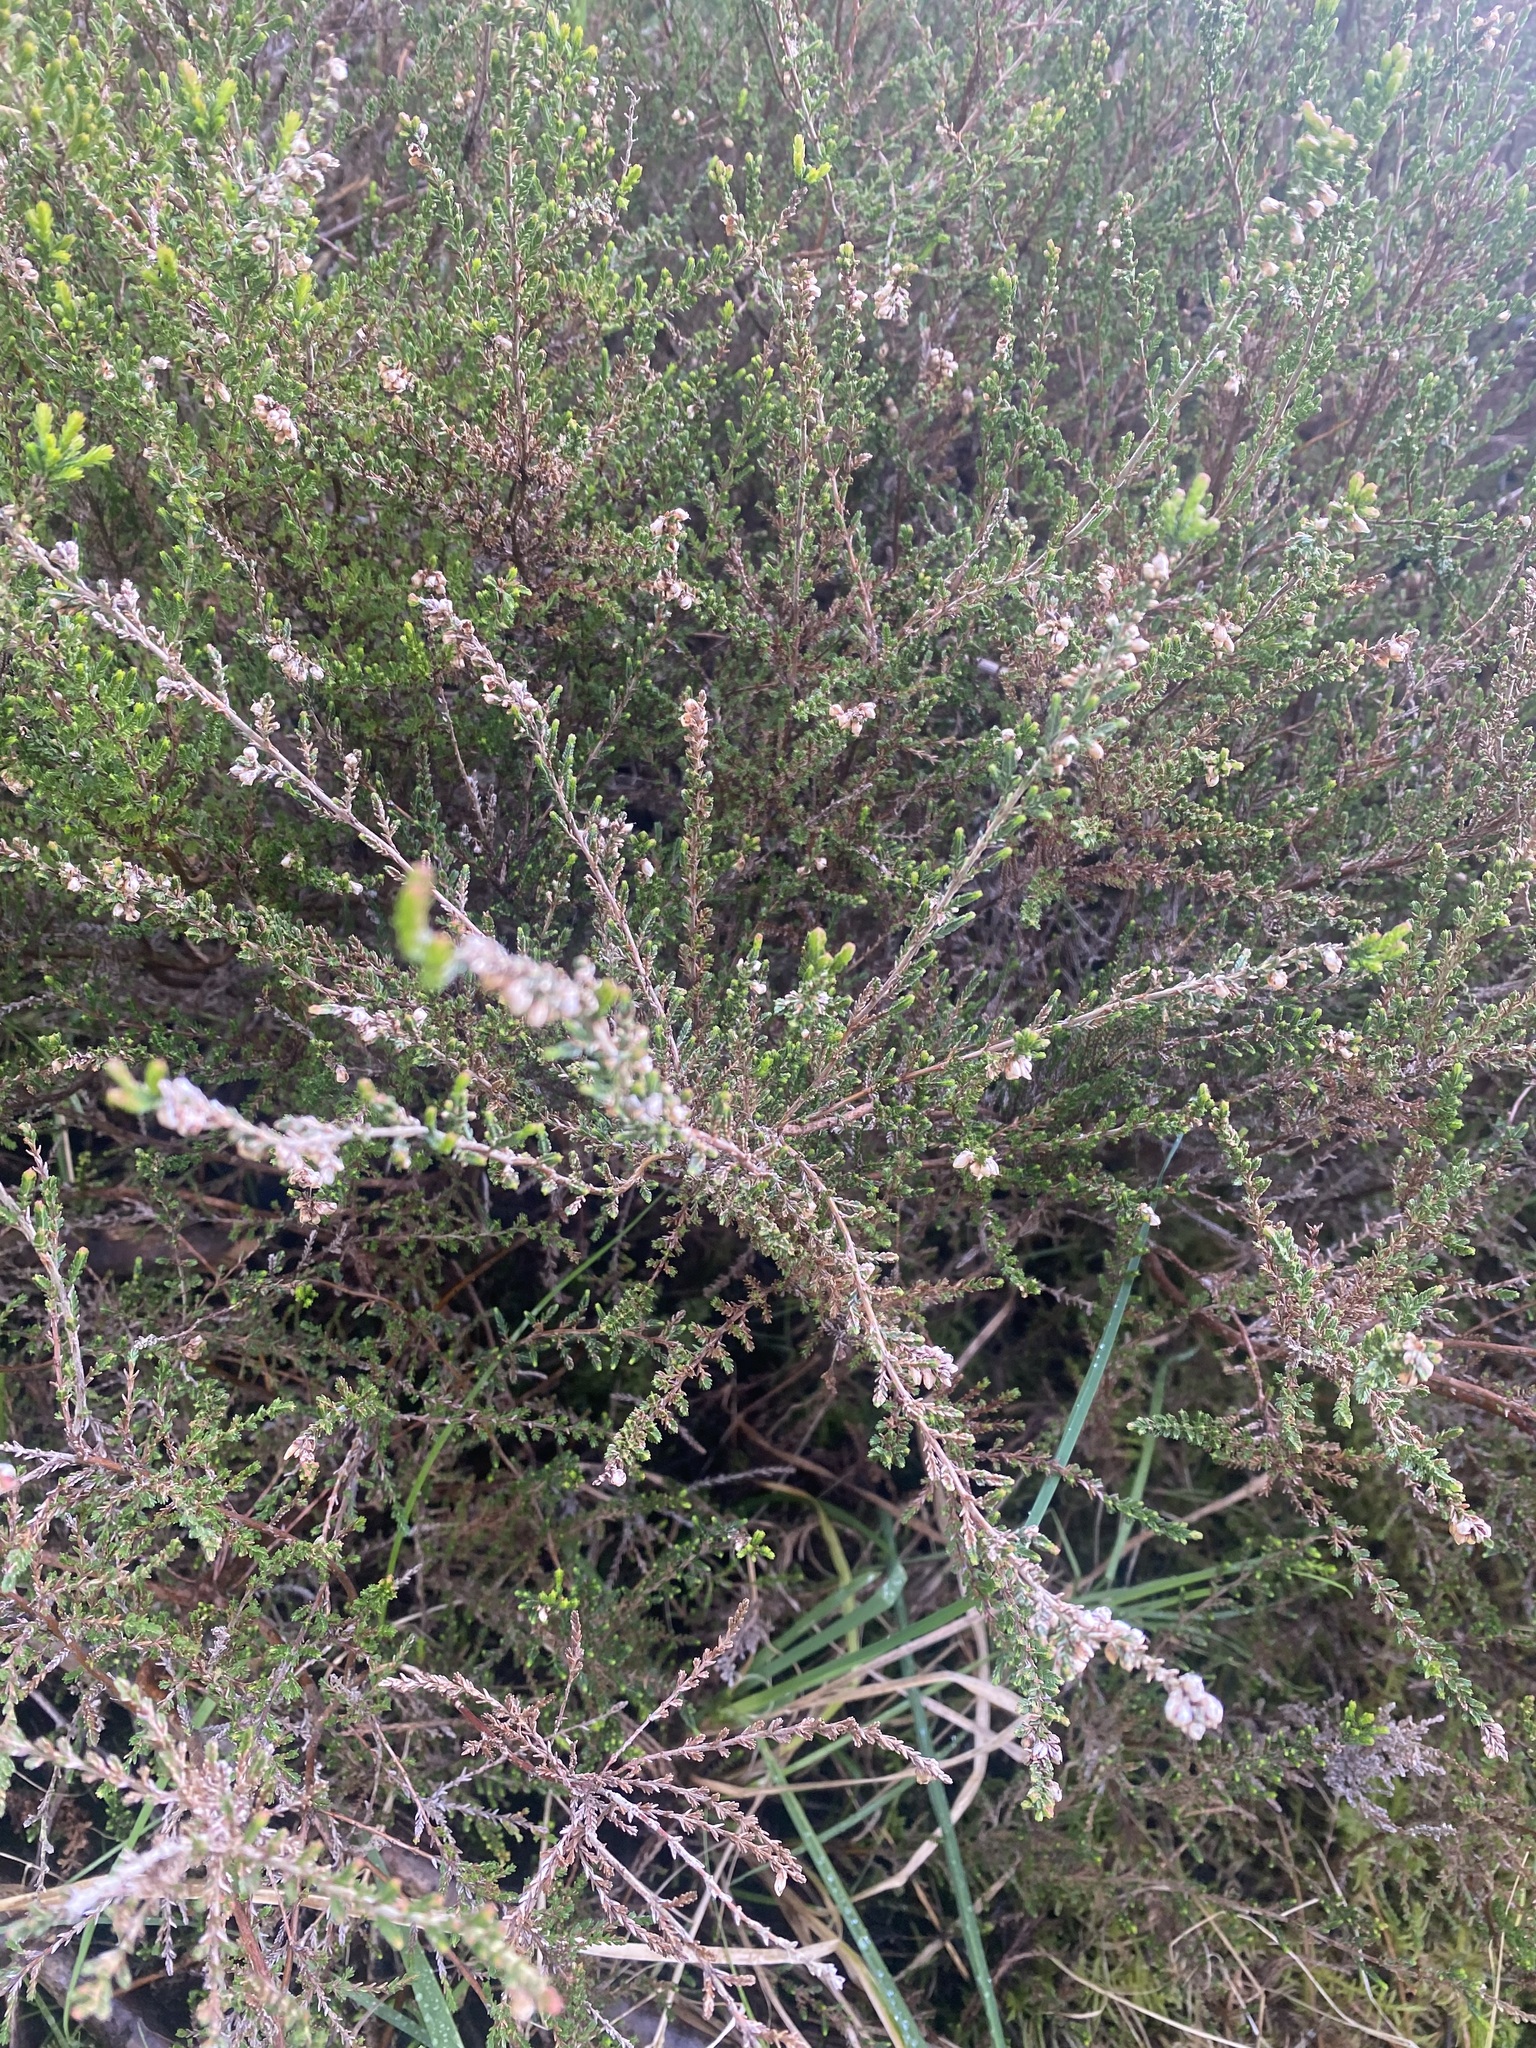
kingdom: Plantae
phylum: Tracheophyta
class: Magnoliopsida
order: Ericales
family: Ericaceae
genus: Calluna
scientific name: Calluna vulgaris
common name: Heather
